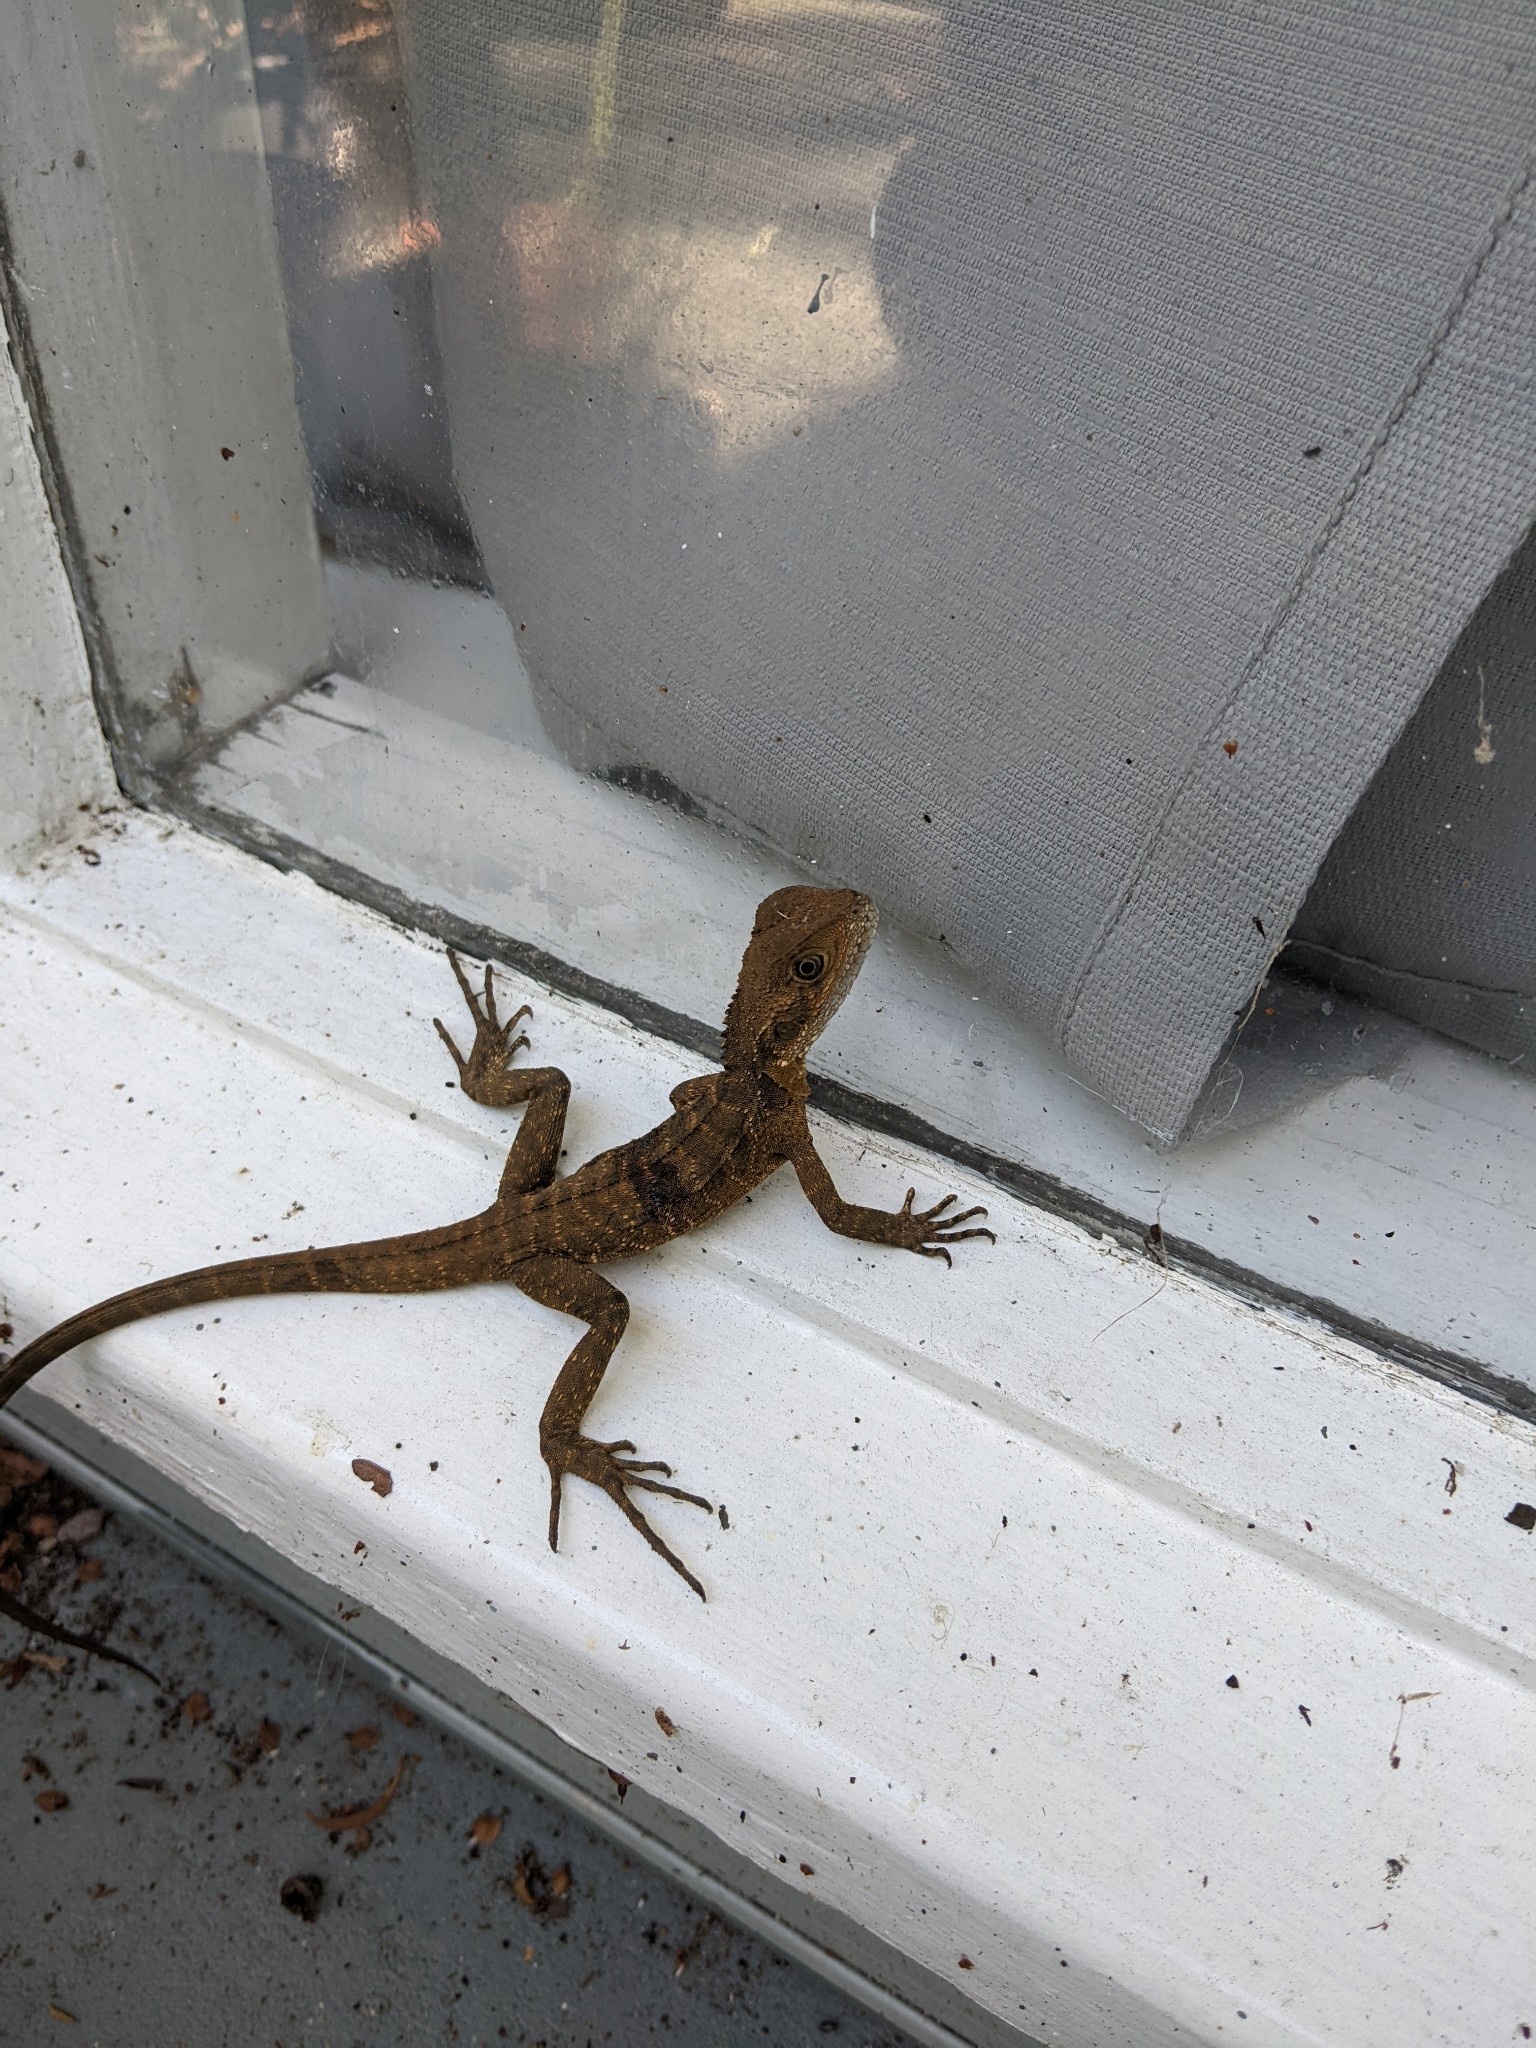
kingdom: Animalia
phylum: Chordata
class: Squamata
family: Agamidae
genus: Intellagama
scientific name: Intellagama lesueurii
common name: Eastern water dragon
